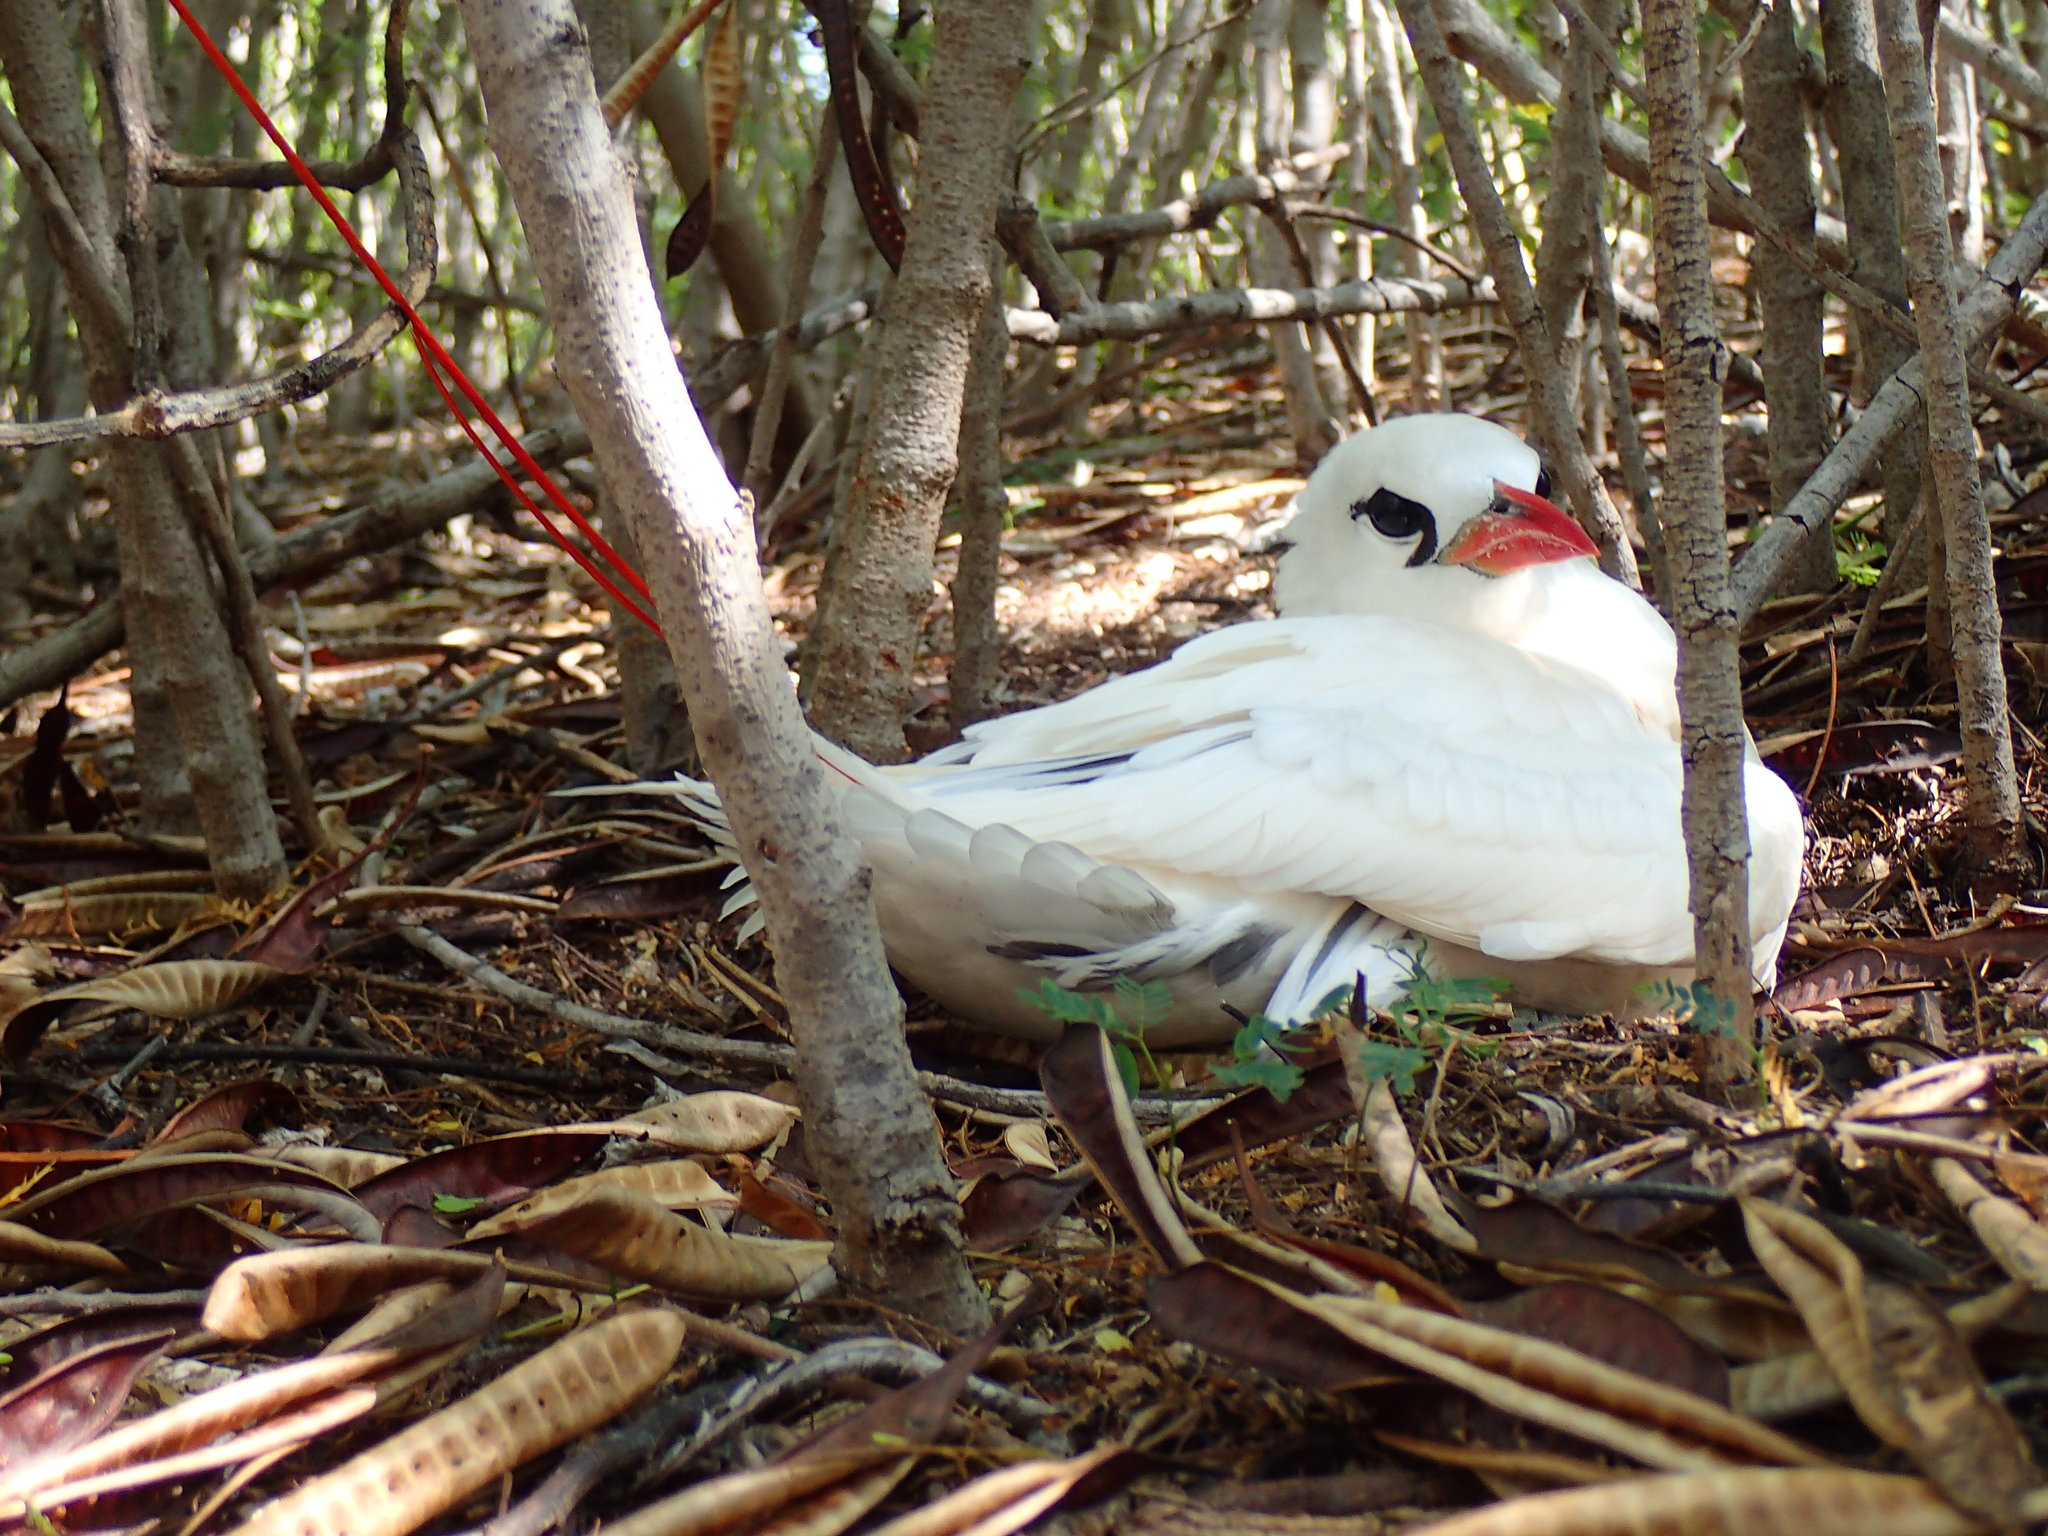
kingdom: Animalia
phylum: Chordata
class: Aves
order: Phaethontiformes
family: Phaethontidae
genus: Phaethon
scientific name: Phaethon rubricauda
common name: Red-tailed tropicbird
